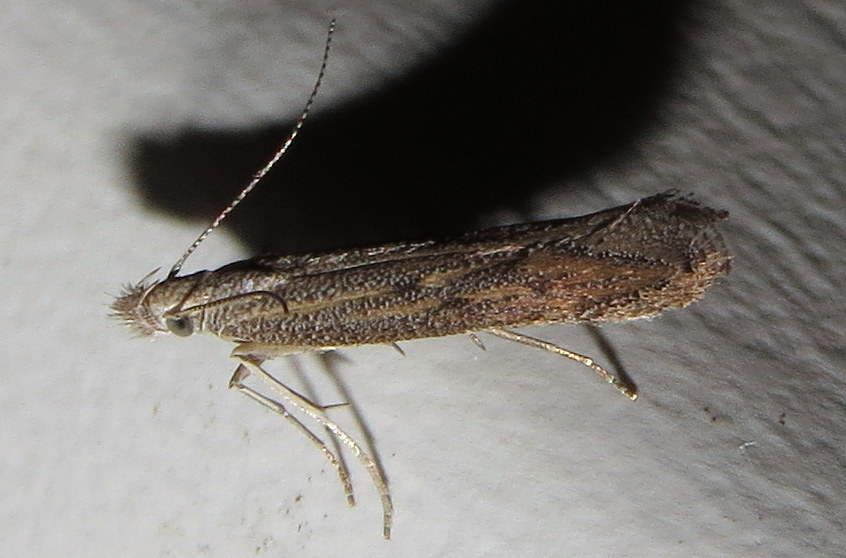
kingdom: Animalia
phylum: Arthropoda
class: Insecta
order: Lepidoptera
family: Gelechiidae
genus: Isophrictis
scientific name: Isophrictis rudbeckiella
